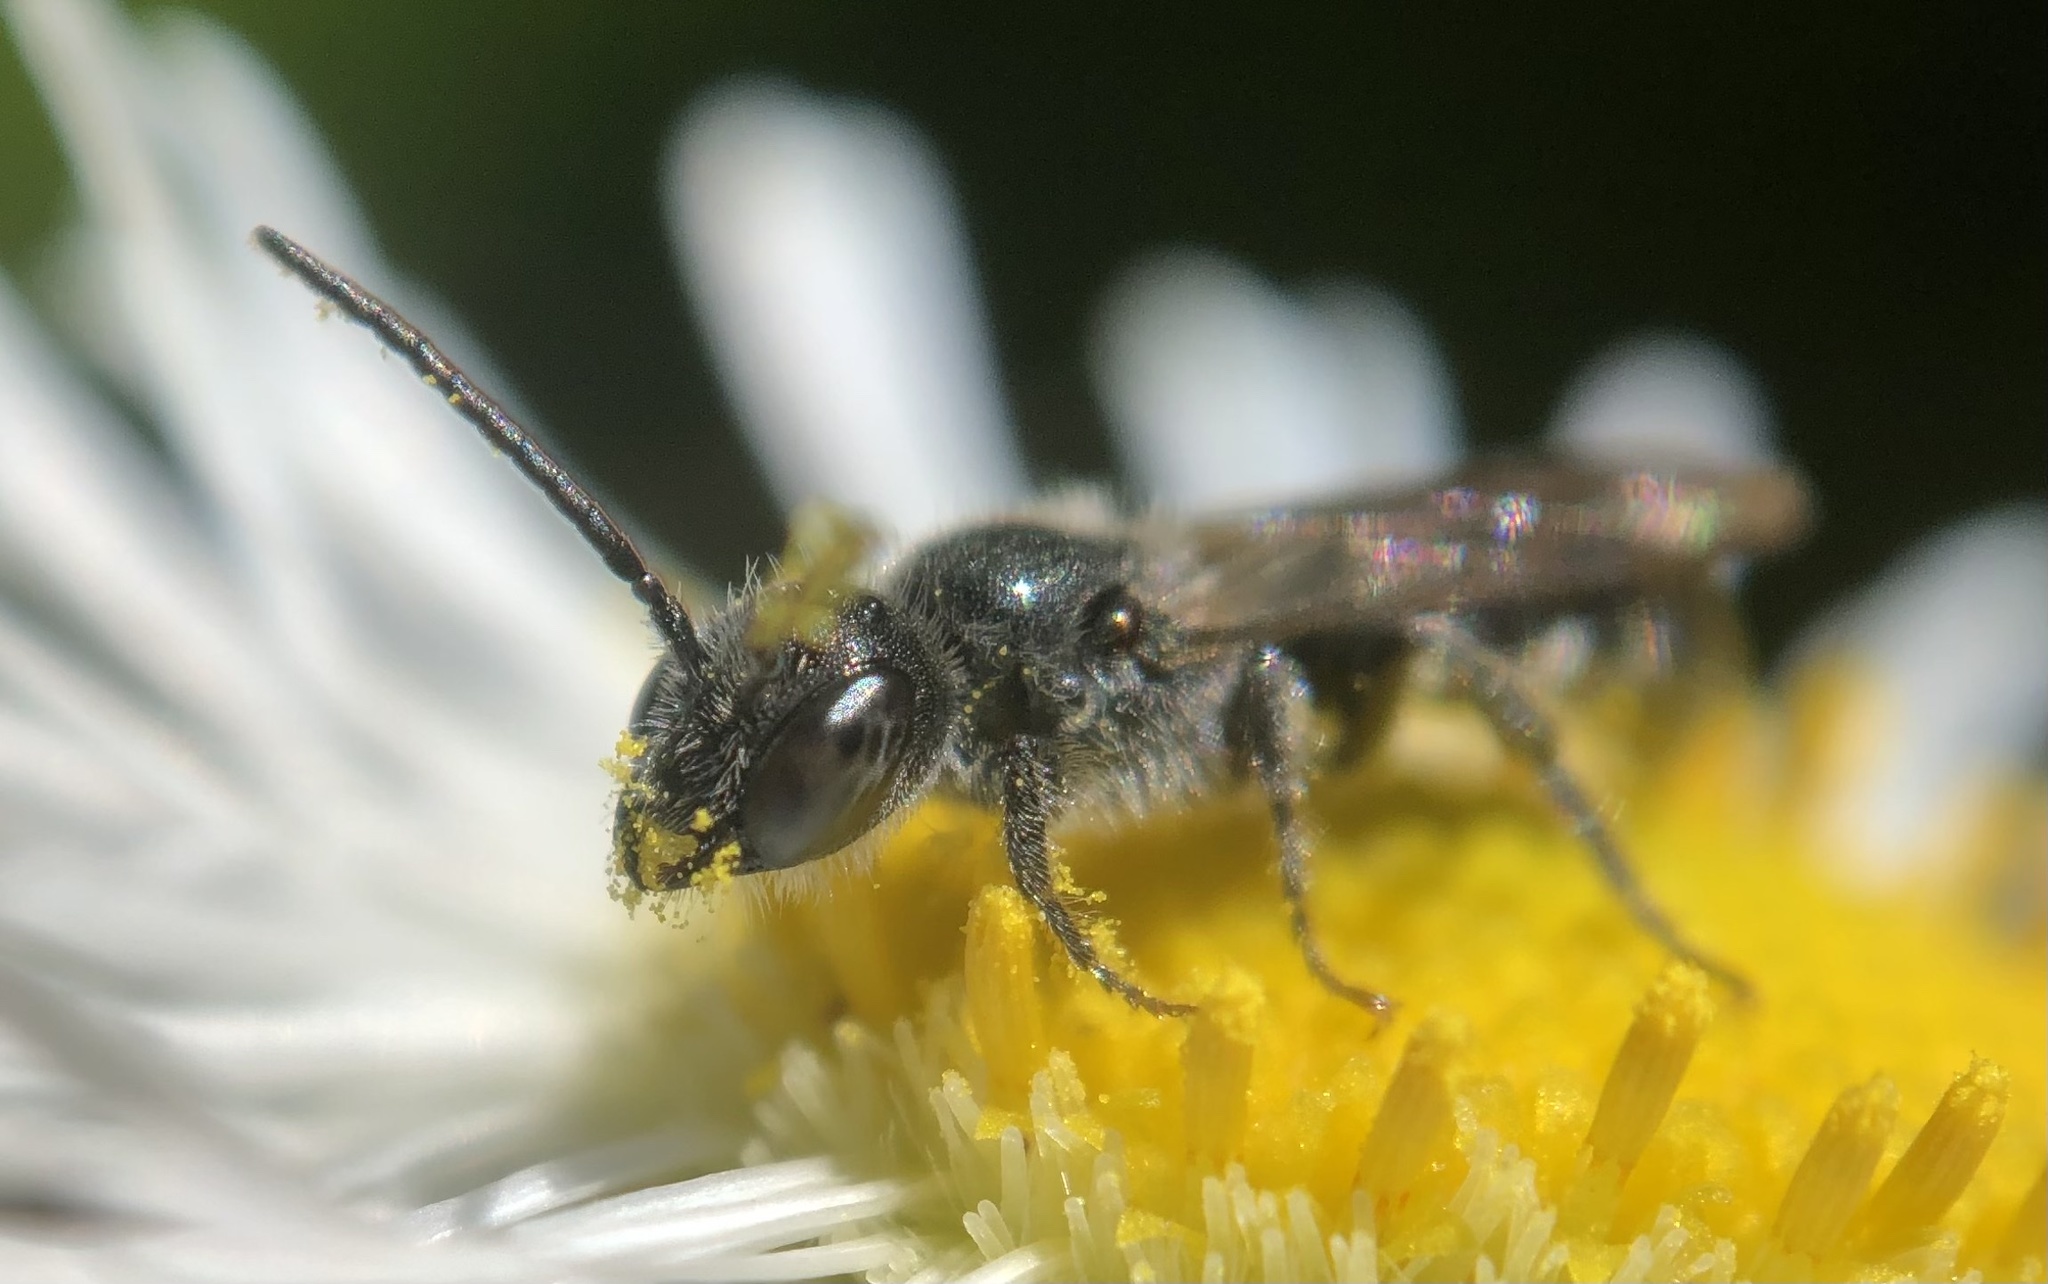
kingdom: Animalia
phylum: Arthropoda
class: Insecta
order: Hymenoptera
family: Megachilidae
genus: Chelostoma
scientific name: Chelostoma philadelphi
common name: Mock-orange scissor bee
